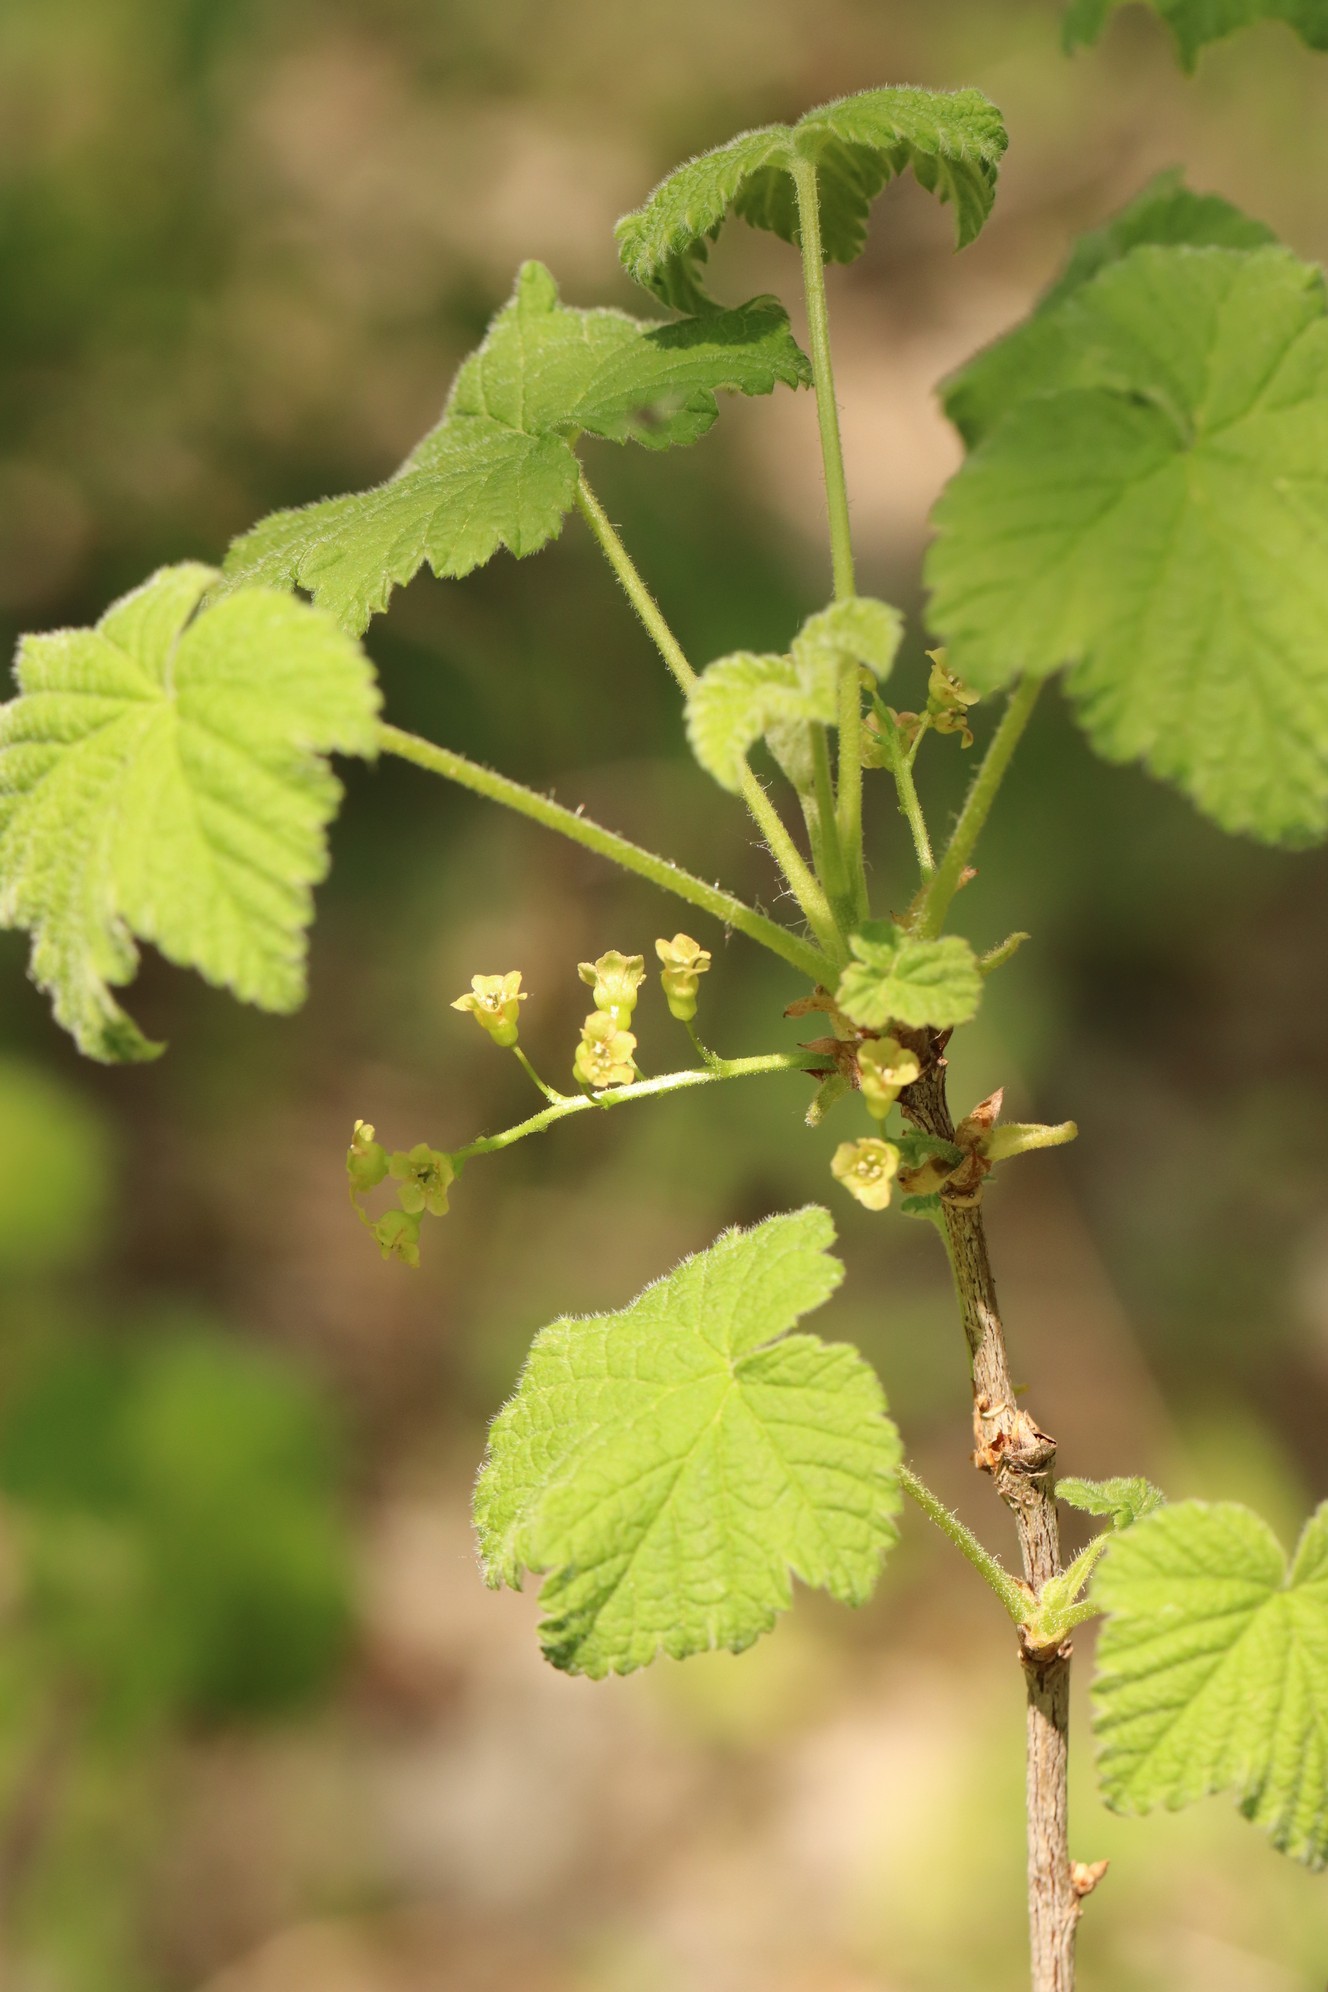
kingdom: Plantae
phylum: Tracheophyta
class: Magnoliopsida
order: Saxifragales
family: Grossulariaceae
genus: Ribes
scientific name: Ribes spicatum
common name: Downy currant
